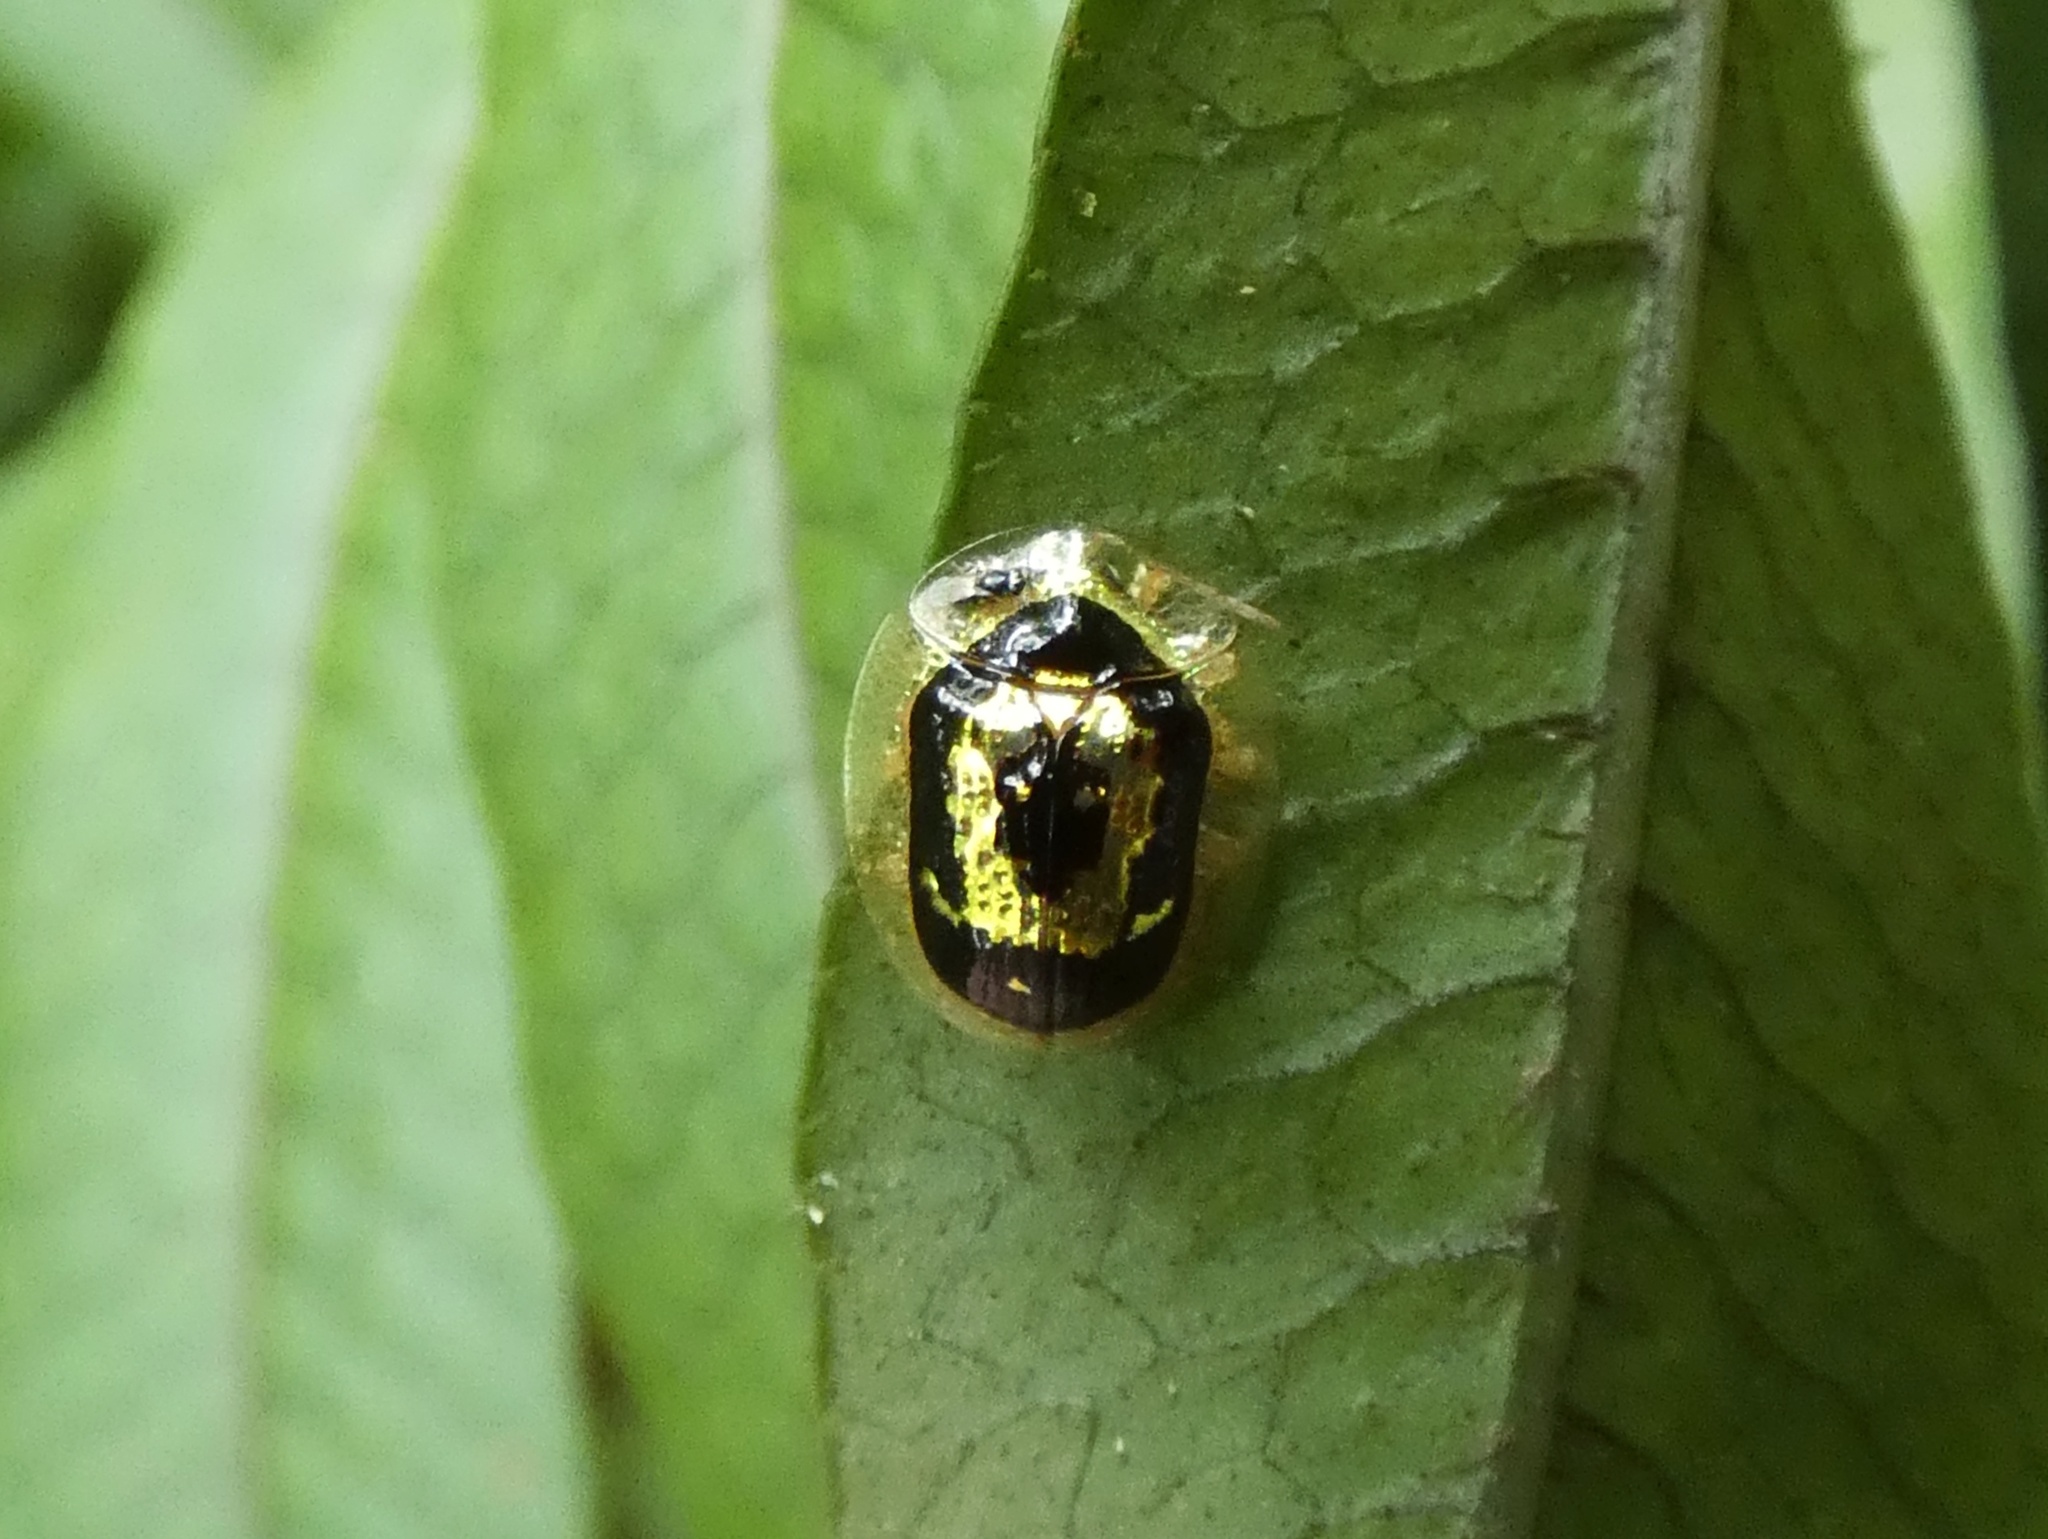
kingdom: Animalia
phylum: Arthropoda
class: Insecta
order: Coleoptera
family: Chrysomelidae
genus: Microctenochira
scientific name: Microctenochira panamensis
